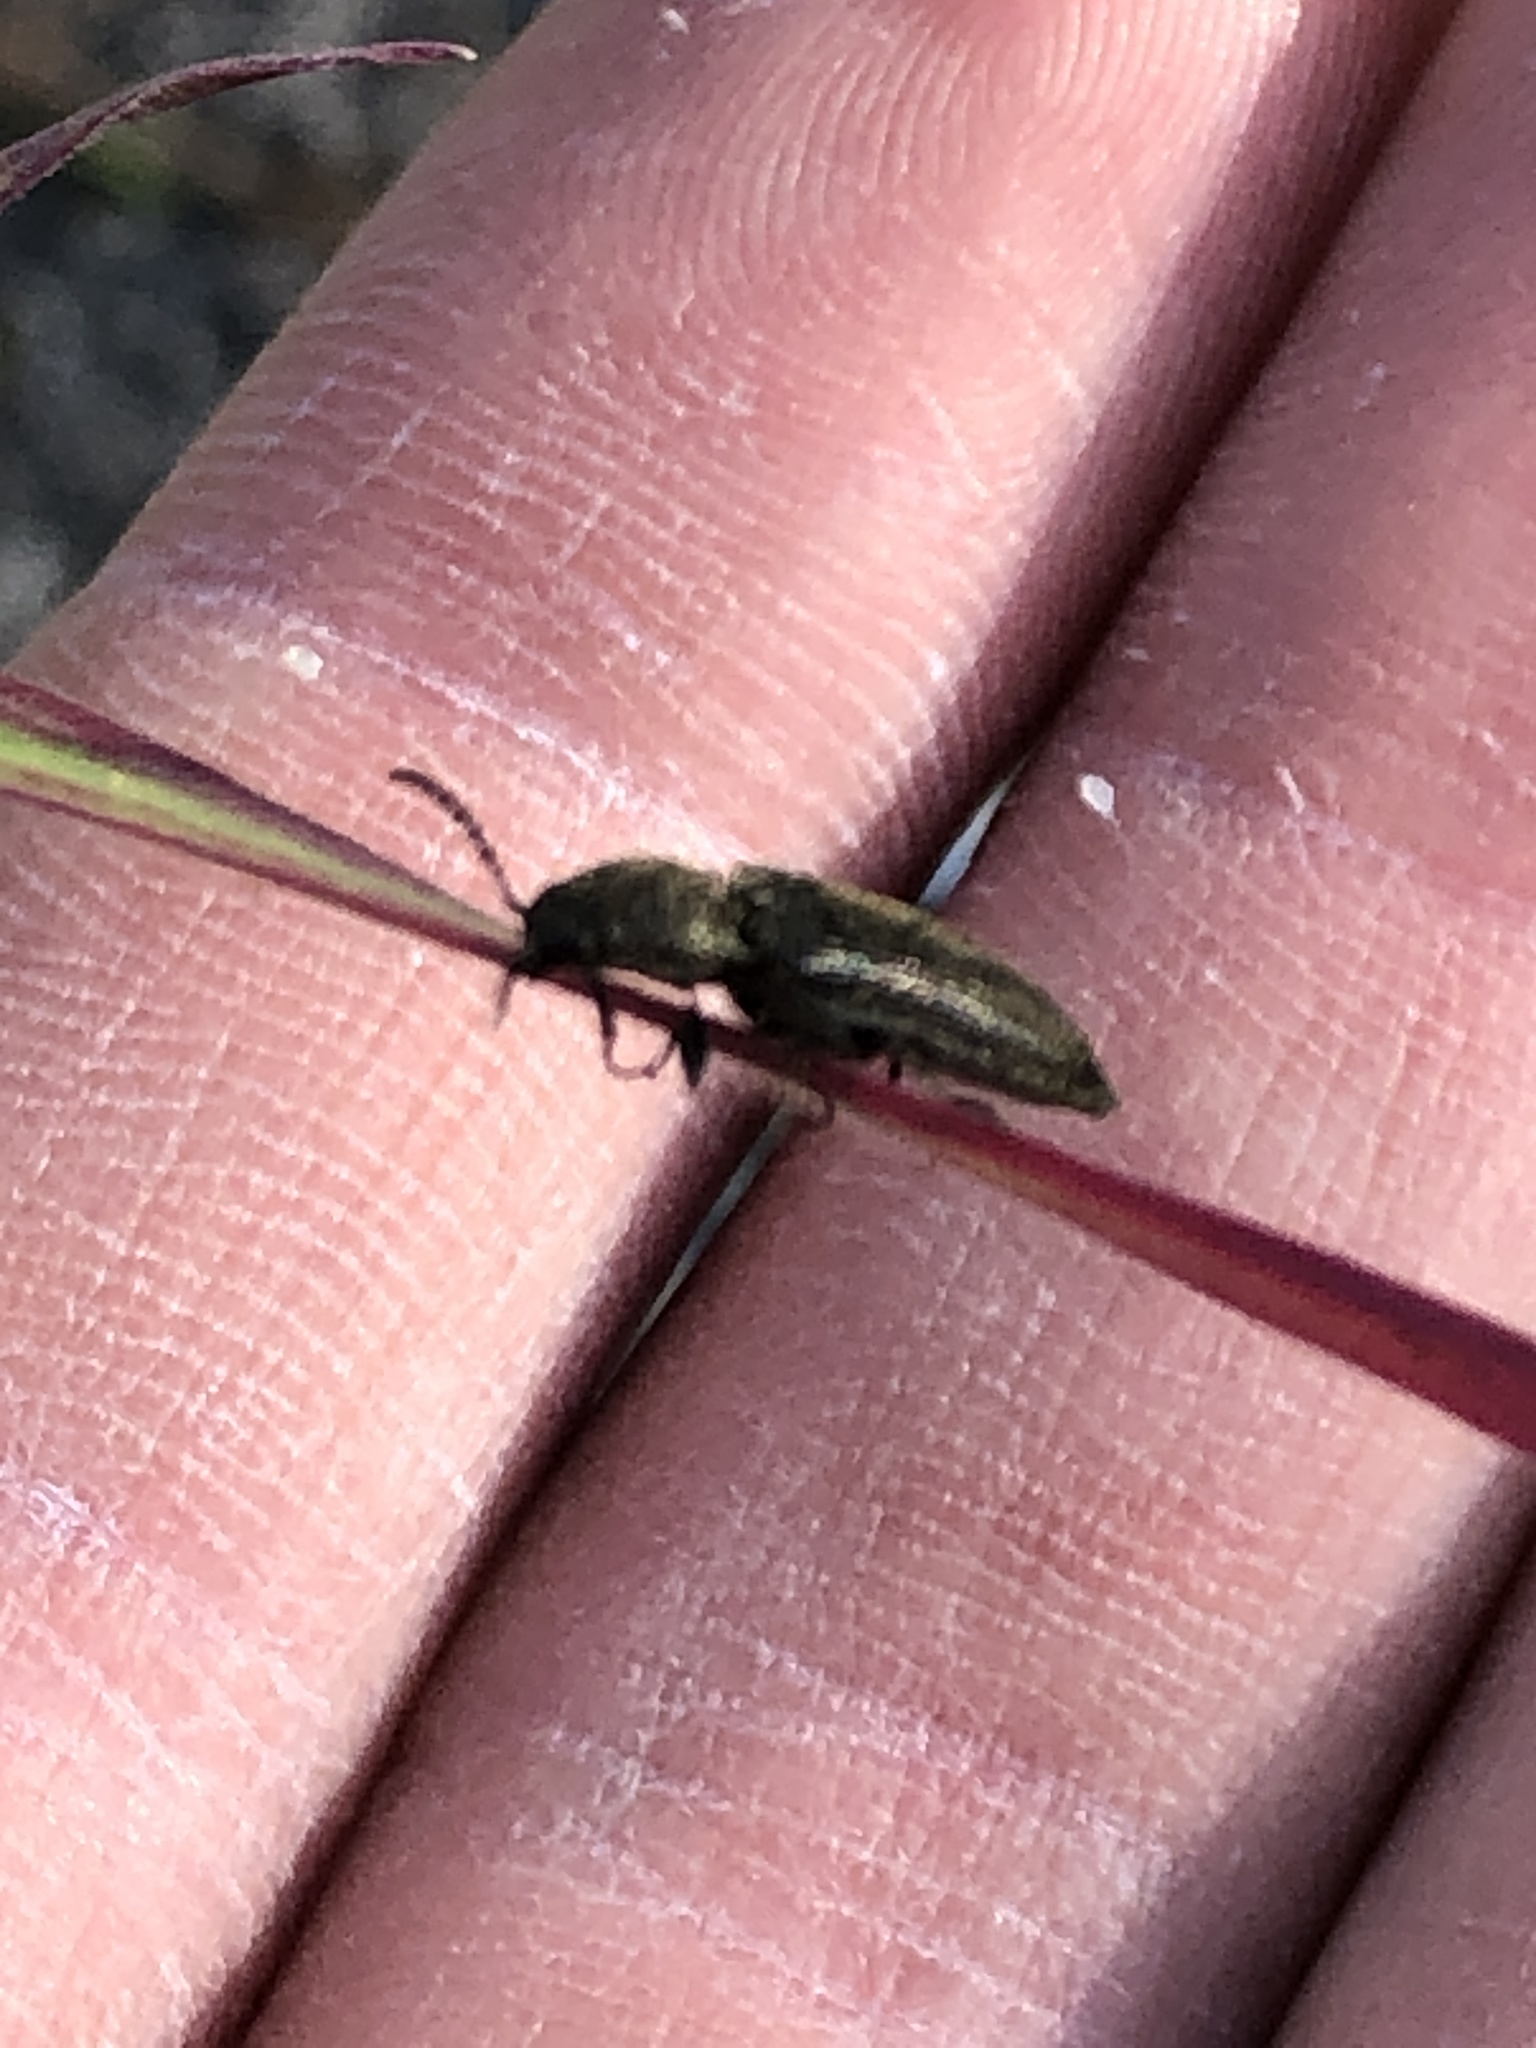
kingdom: Animalia
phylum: Arthropoda
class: Insecta
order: Coleoptera
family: Elateridae
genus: Cidnopus
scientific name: Cidnopus aeruginosus
